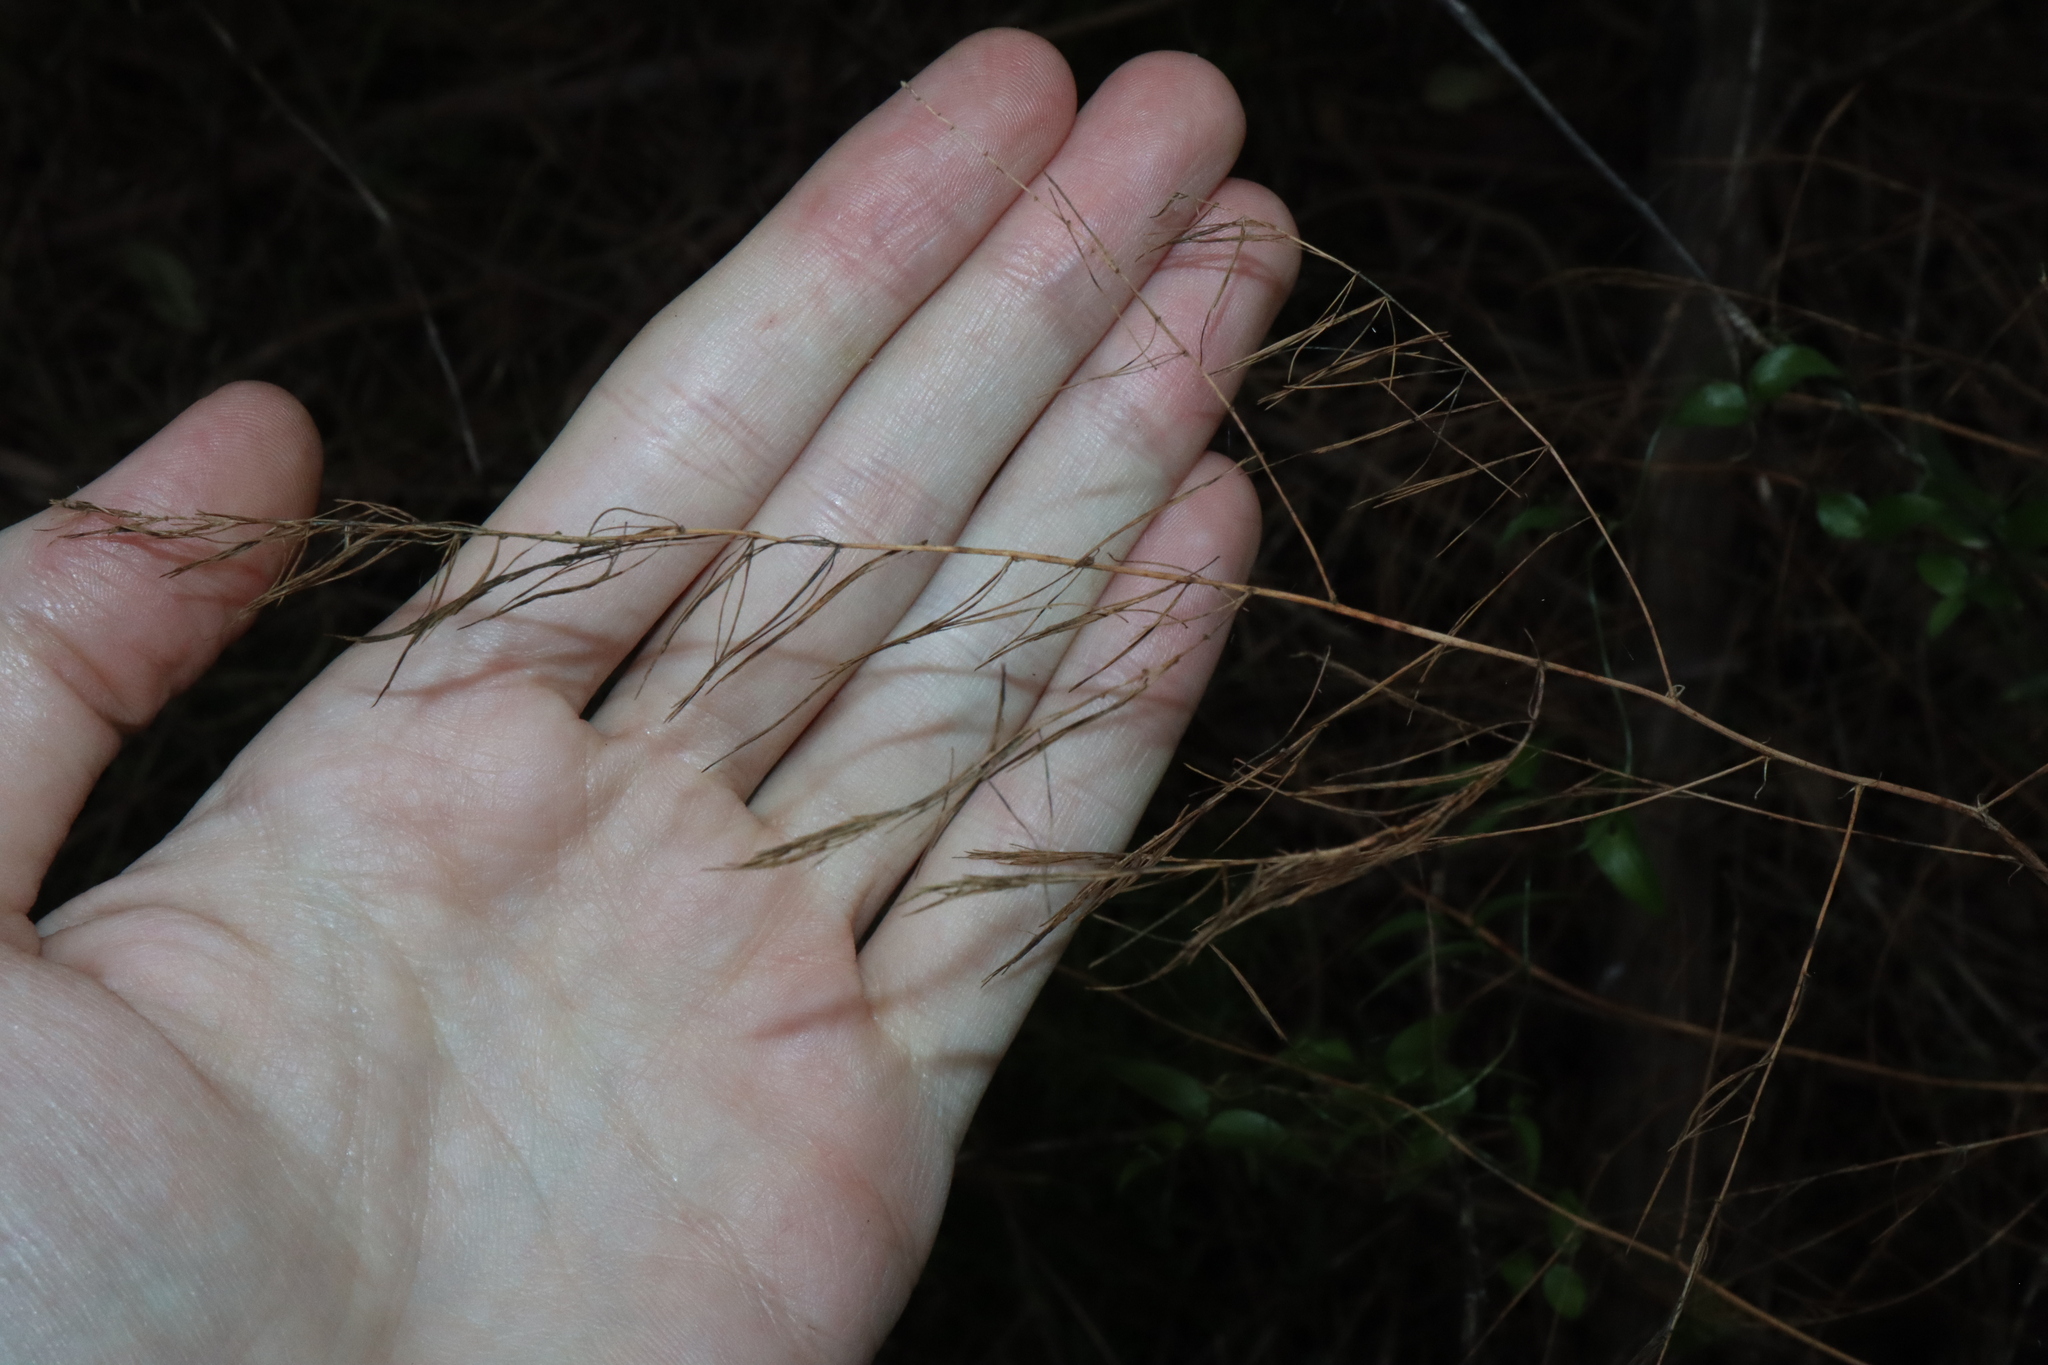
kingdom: Plantae
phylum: Tracheophyta
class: Liliopsida
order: Asparagales
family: Asparagaceae
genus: Asparagus
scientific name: Asparagus officinalis
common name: Garden asparagus
